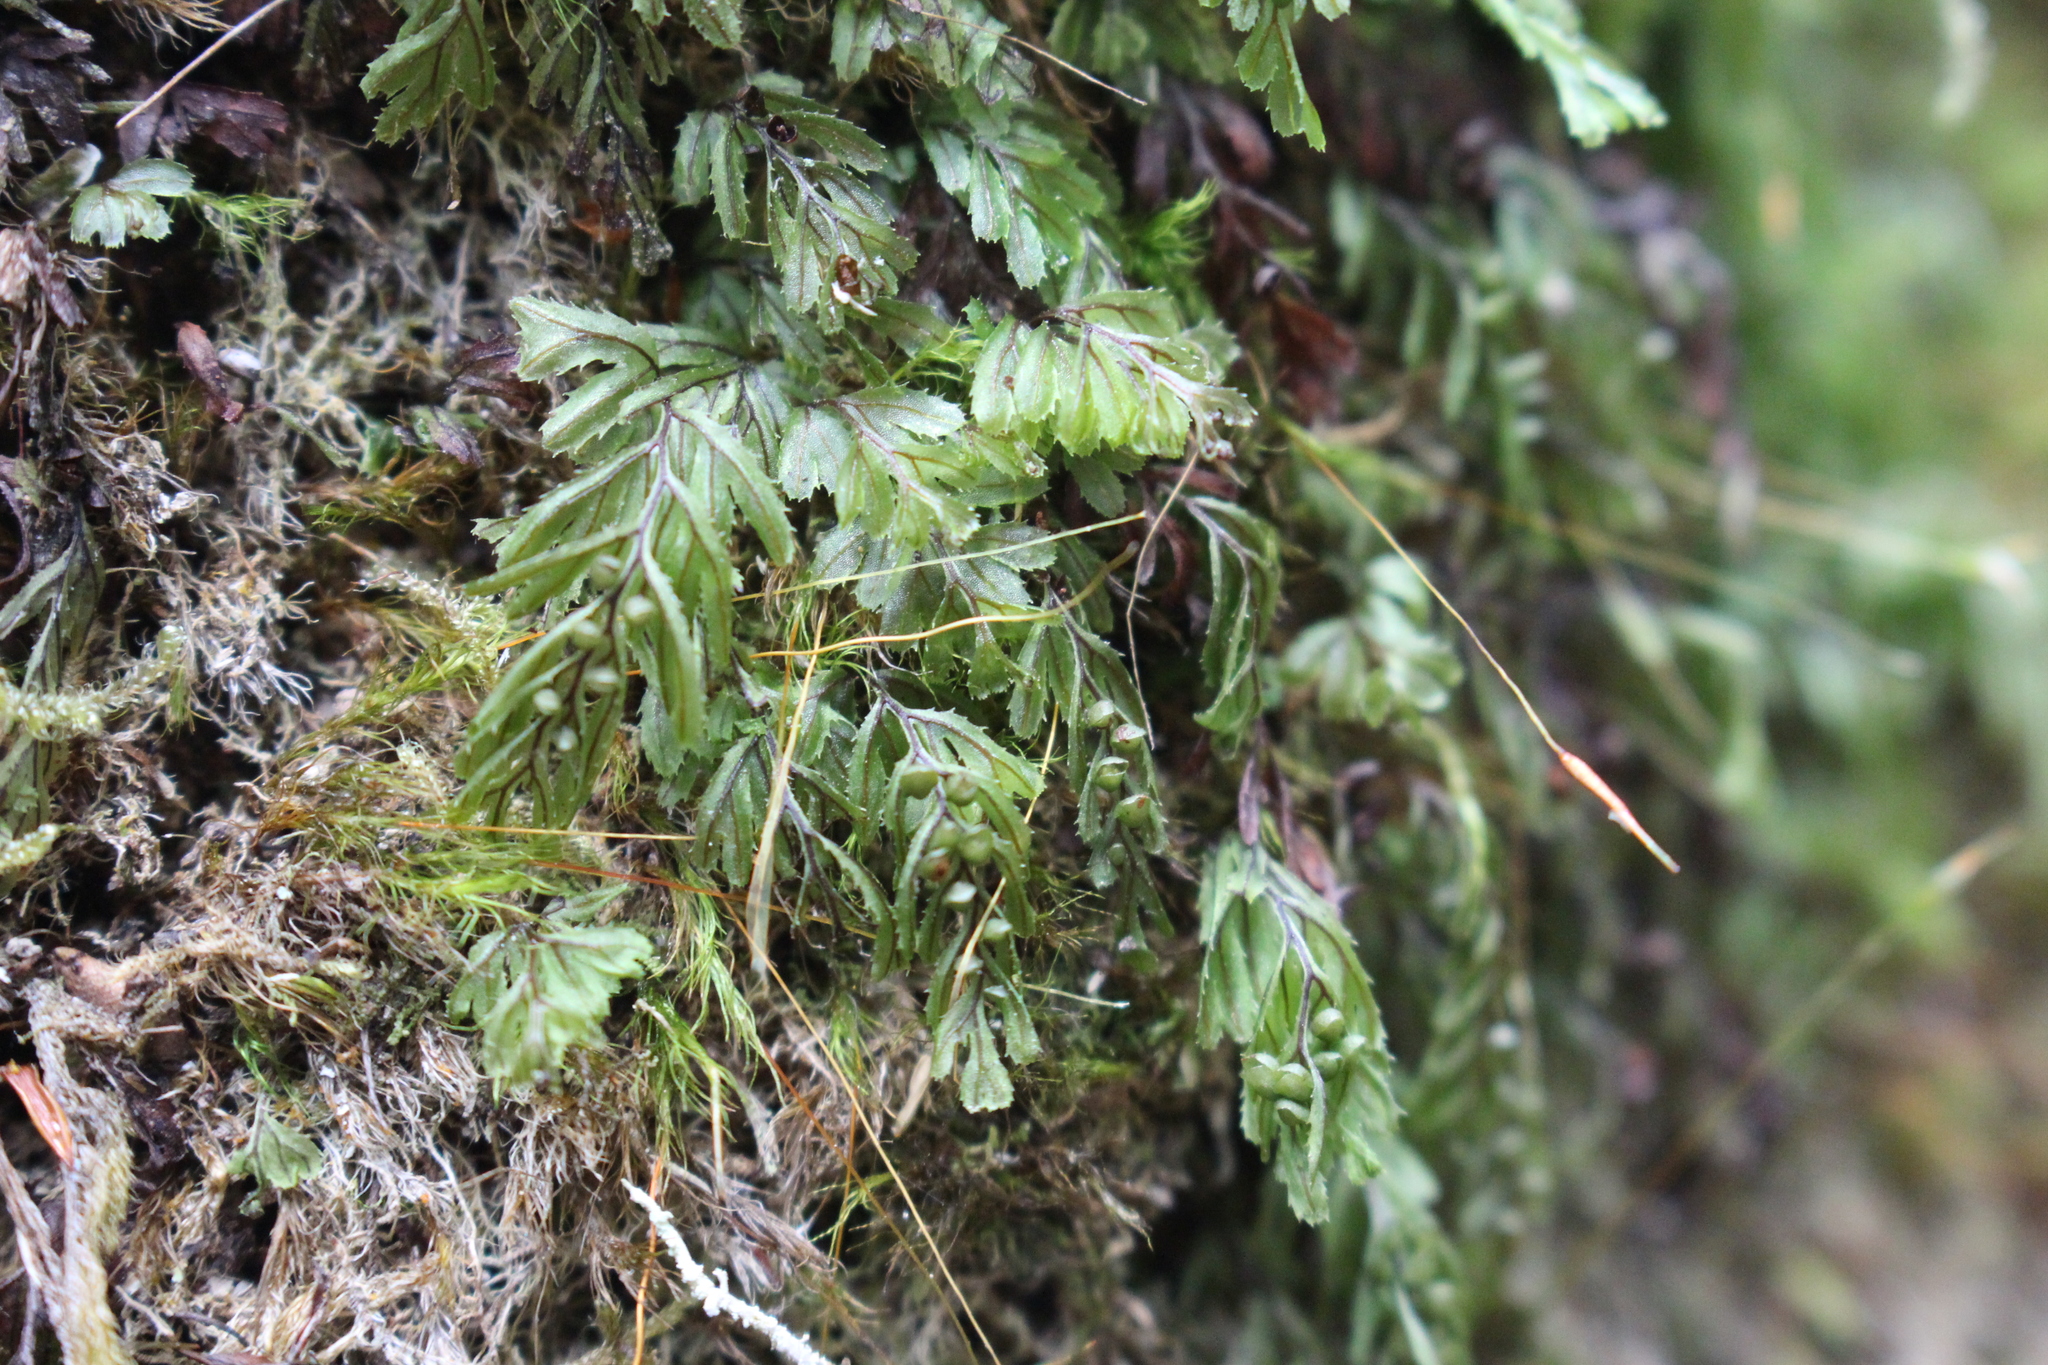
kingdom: Plantae
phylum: Tracheophyta
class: Polypodiopsida
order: Hymenophyllales
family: Hymenophyllaceae
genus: Hymenophyllum
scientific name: Hymenophyllum peltatum
